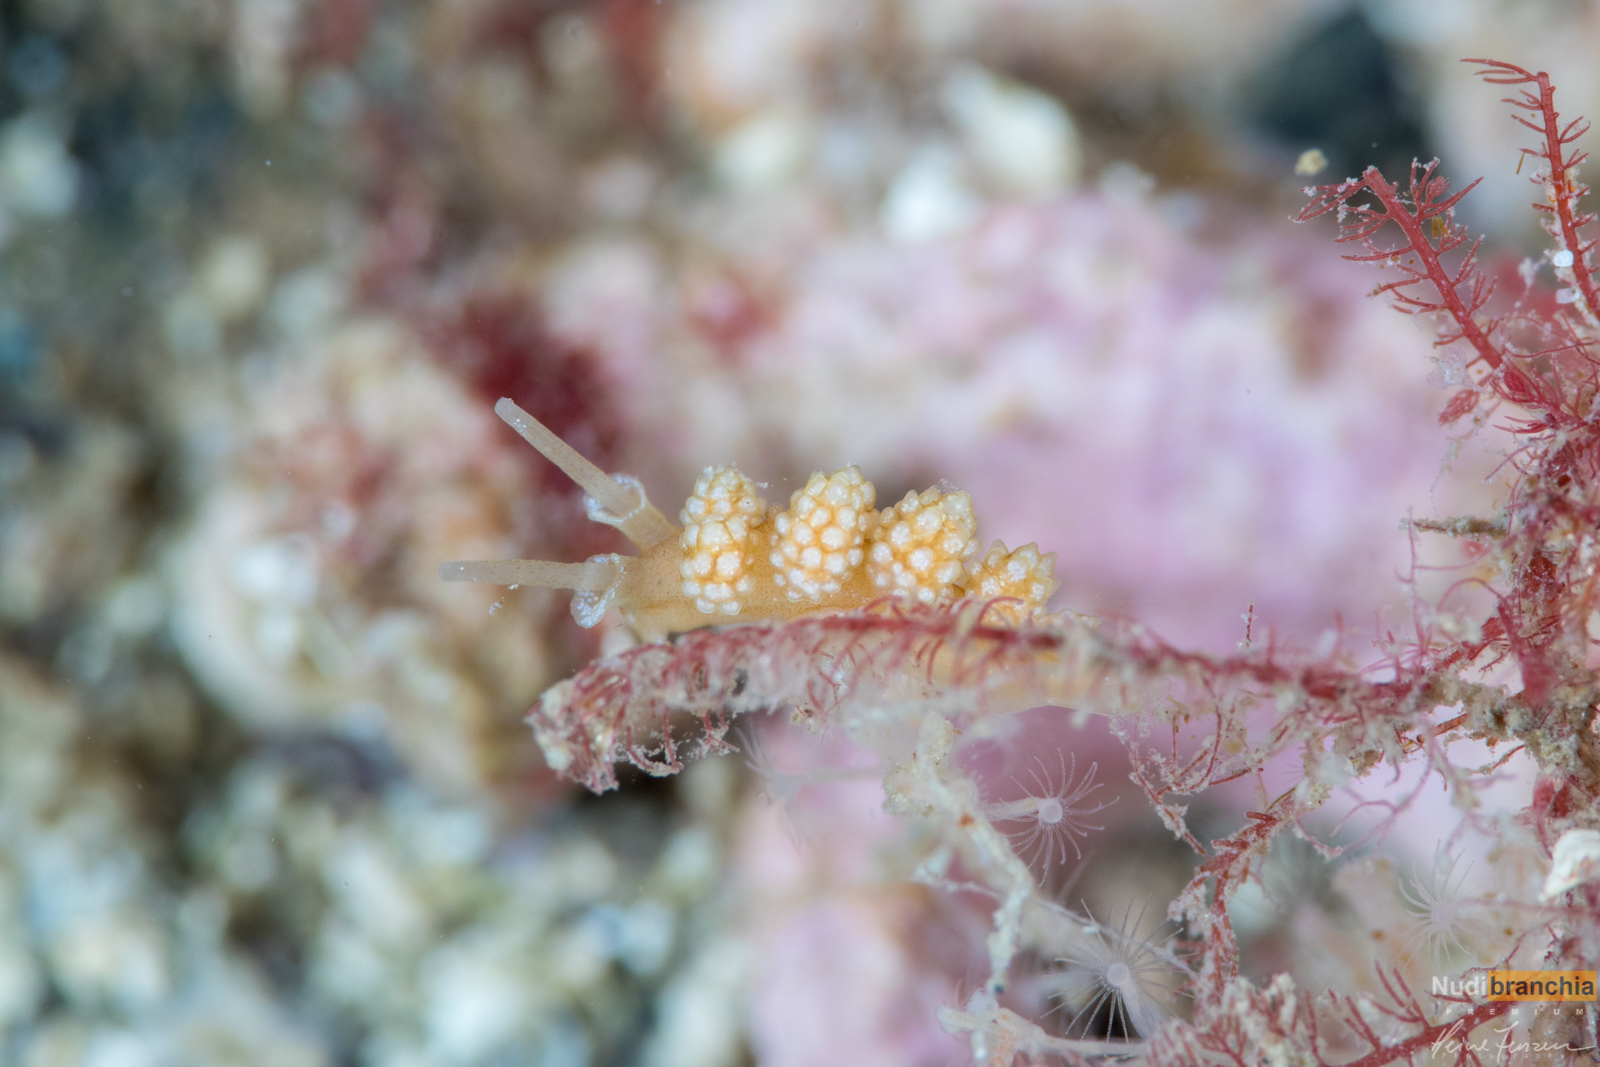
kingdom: Animalia
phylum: Mollusca
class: Gastropoda
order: Nudibranchia
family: Dotidae
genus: Doto
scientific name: Doto fragilis
